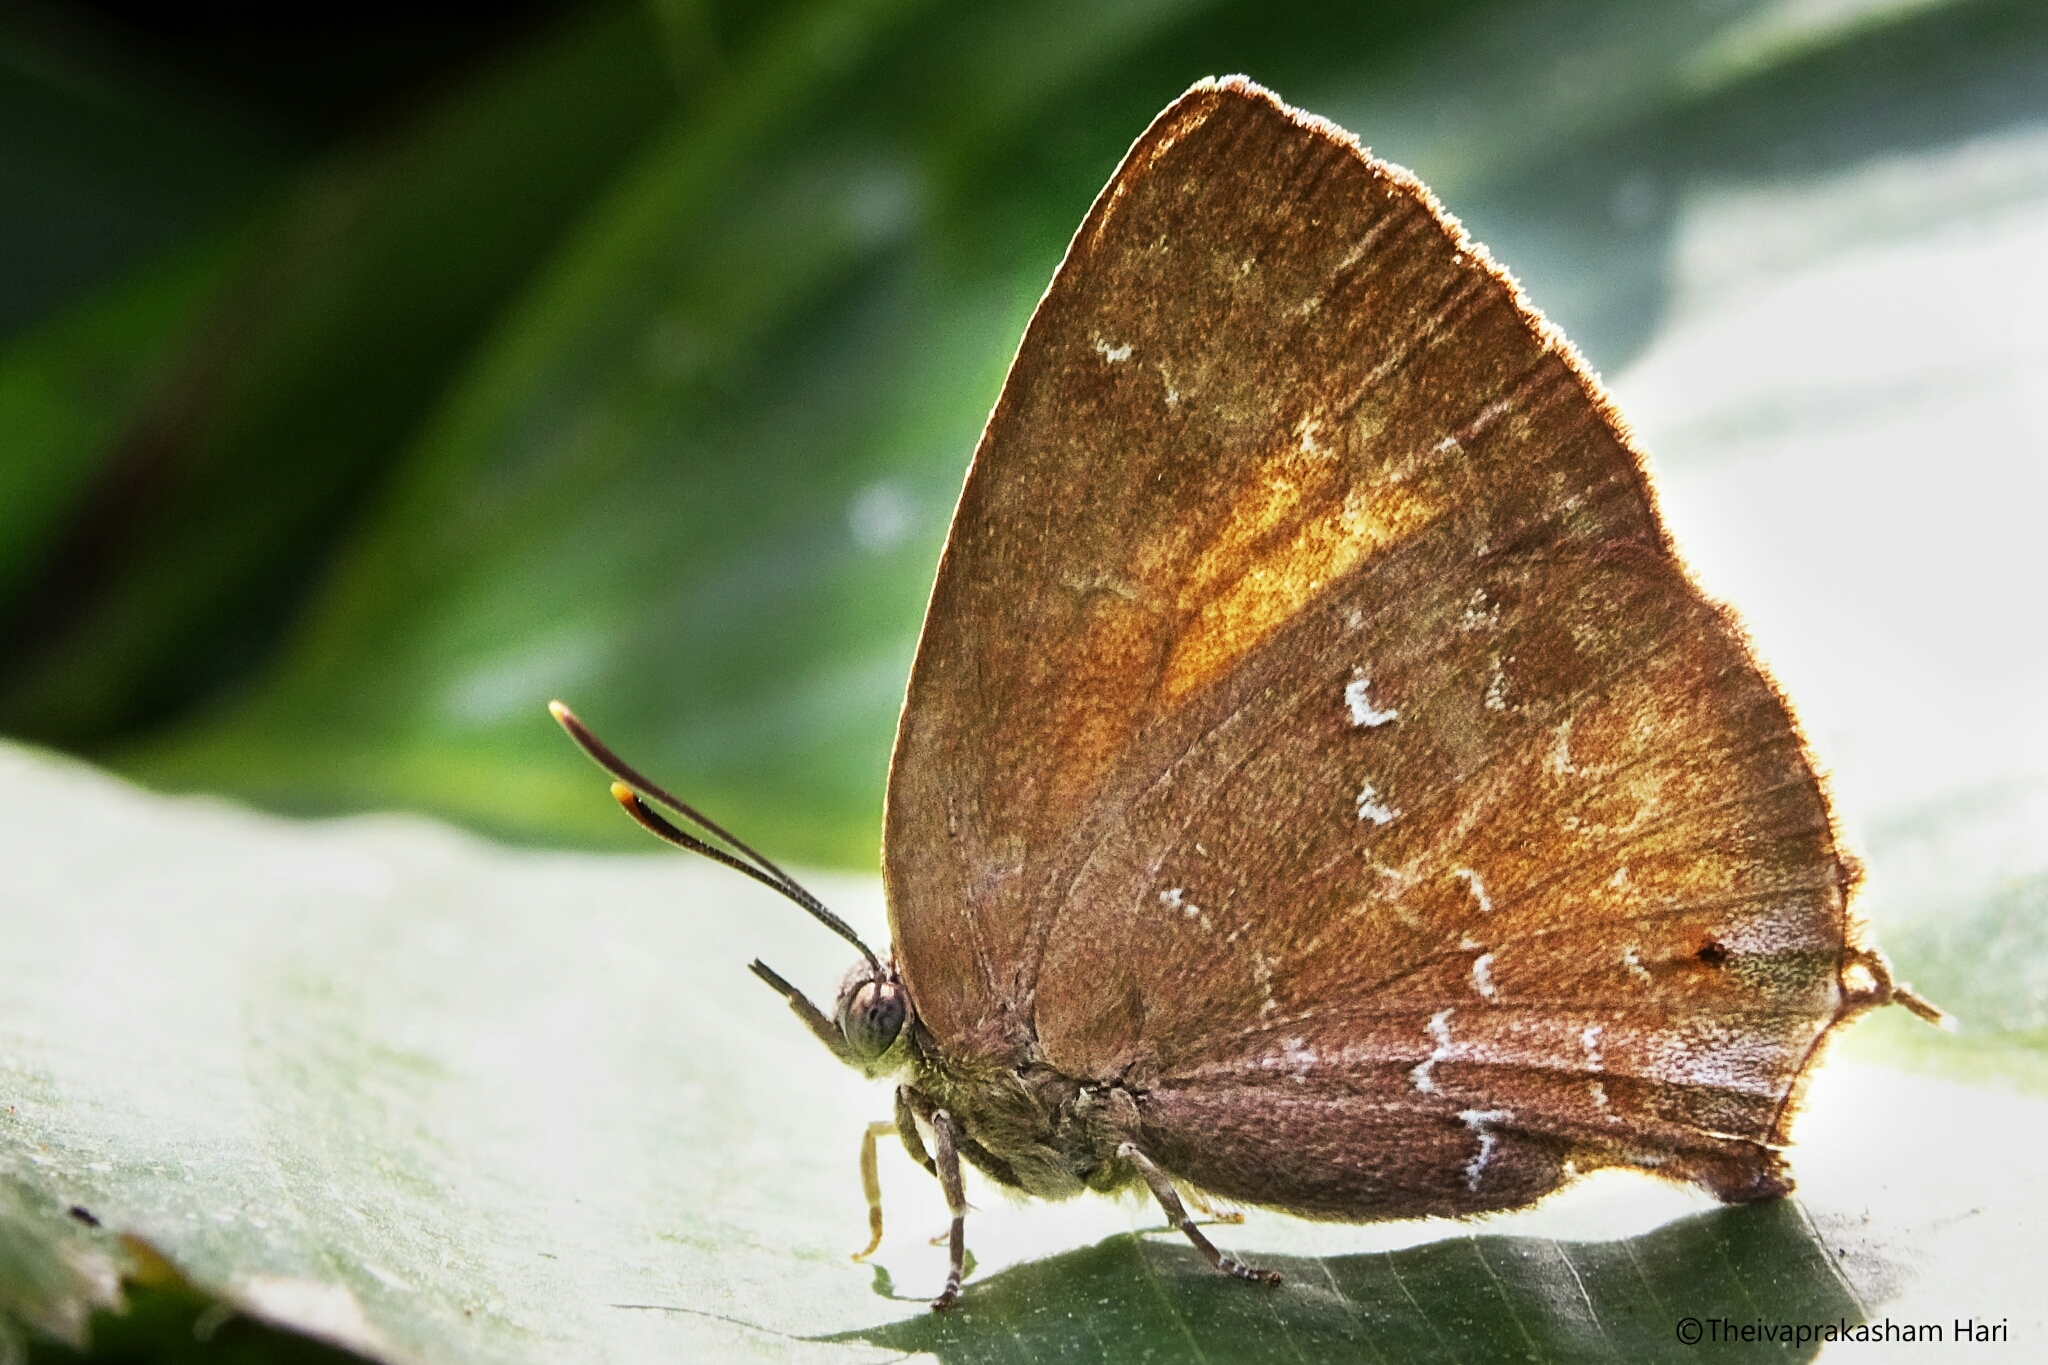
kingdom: Animalia
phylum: Arthropoda
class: Insecta
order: Lepidoptera
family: Lycaenidae
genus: Zinaspa
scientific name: Zinaspa todara
